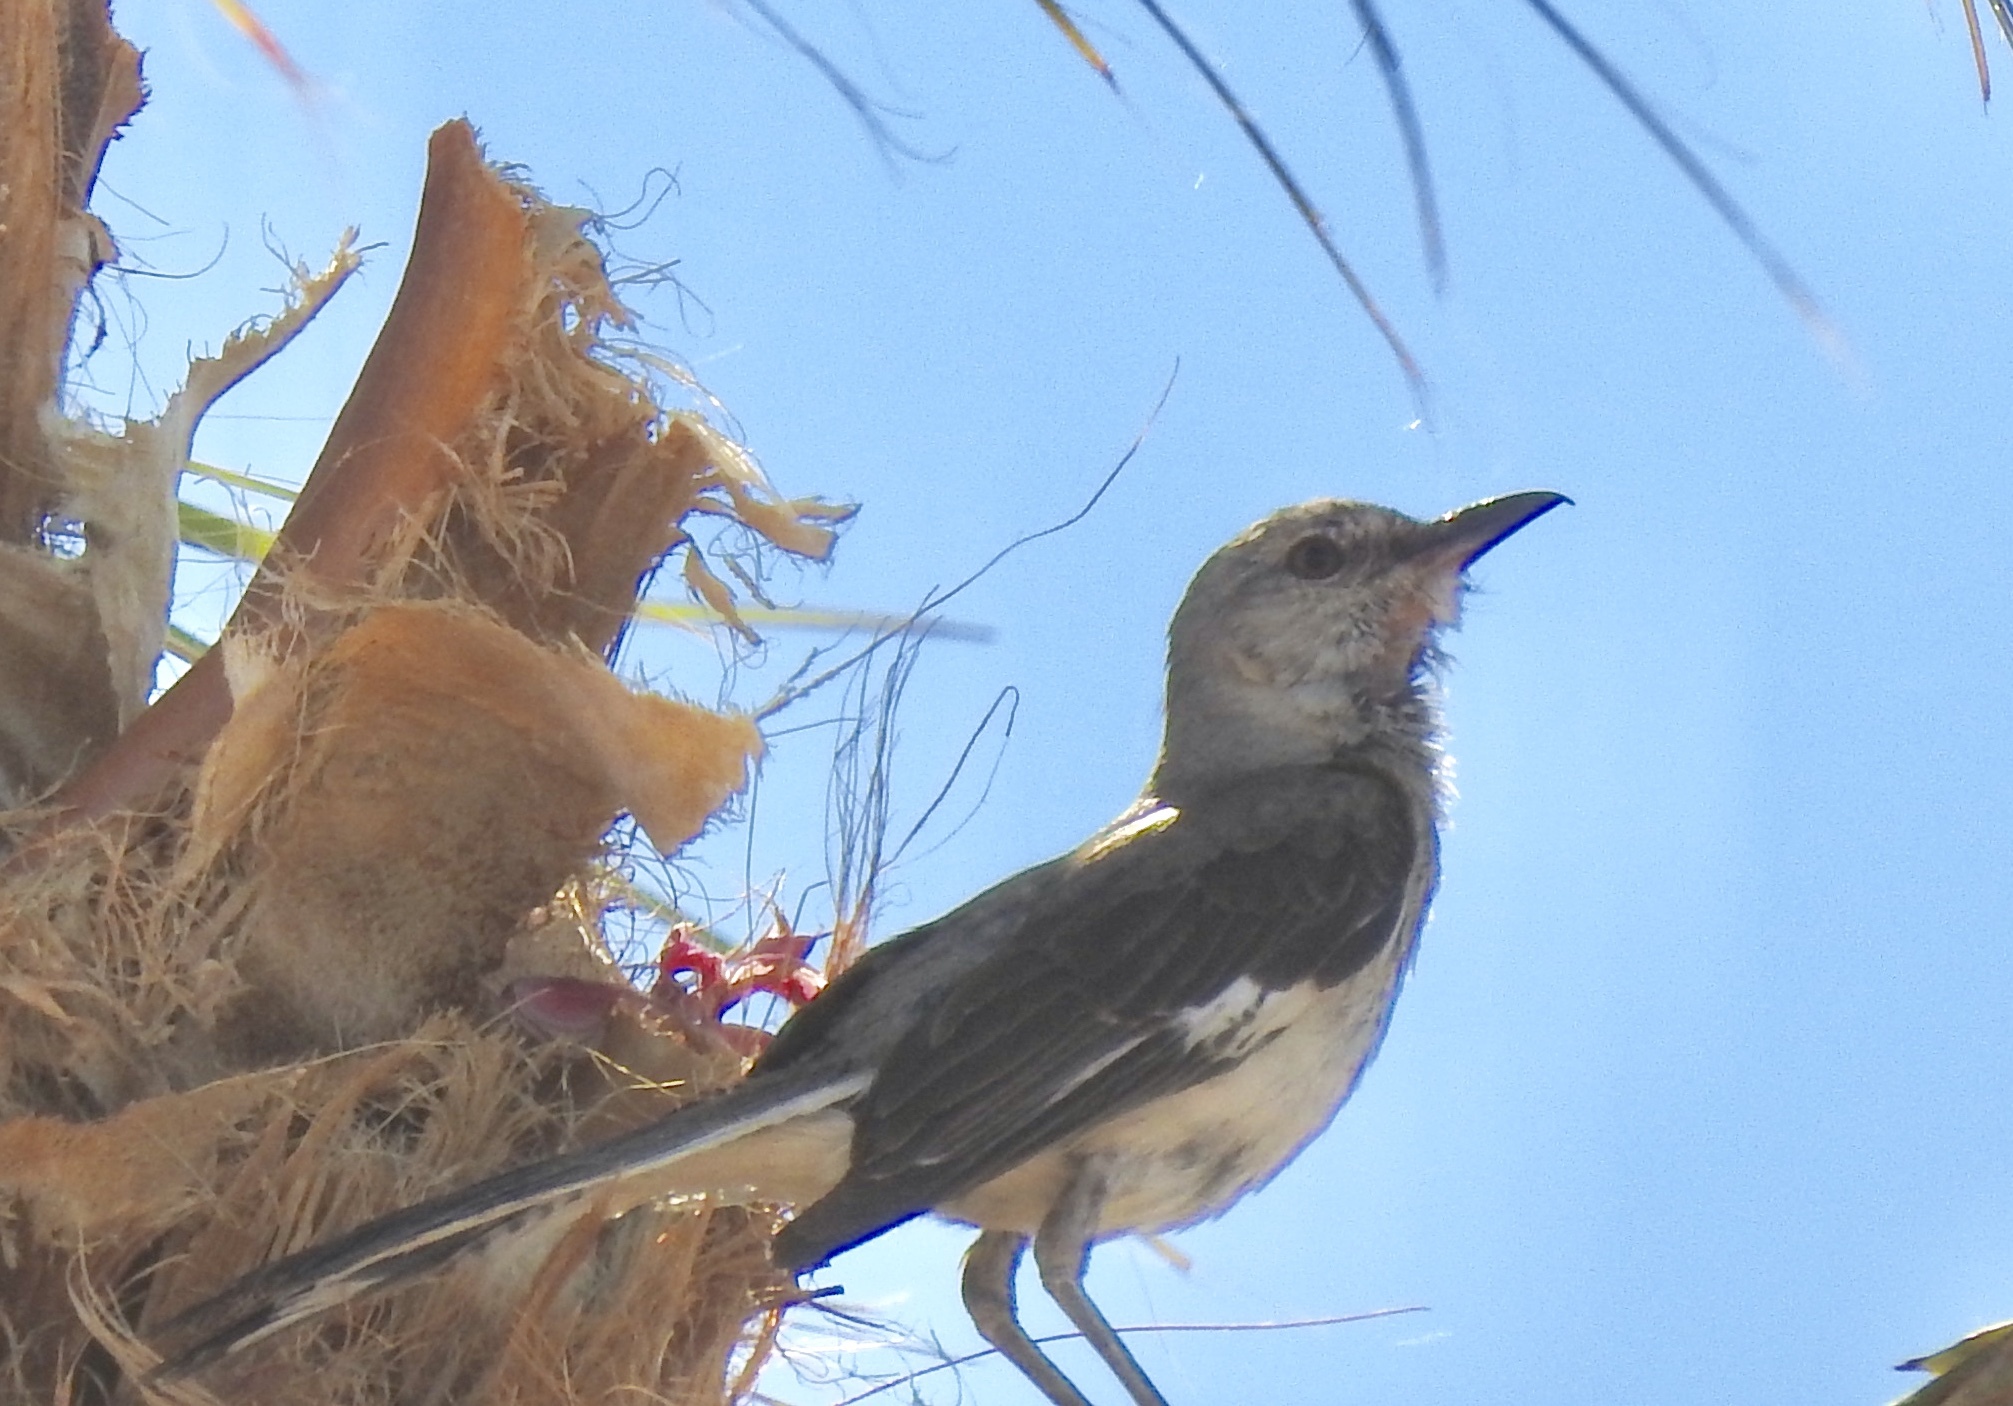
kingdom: Animalia
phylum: Chordata
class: Aves
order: Passeriformes
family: Mimidae
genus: Mimus
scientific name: Mimus polyglottos
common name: Northern mockingbird
